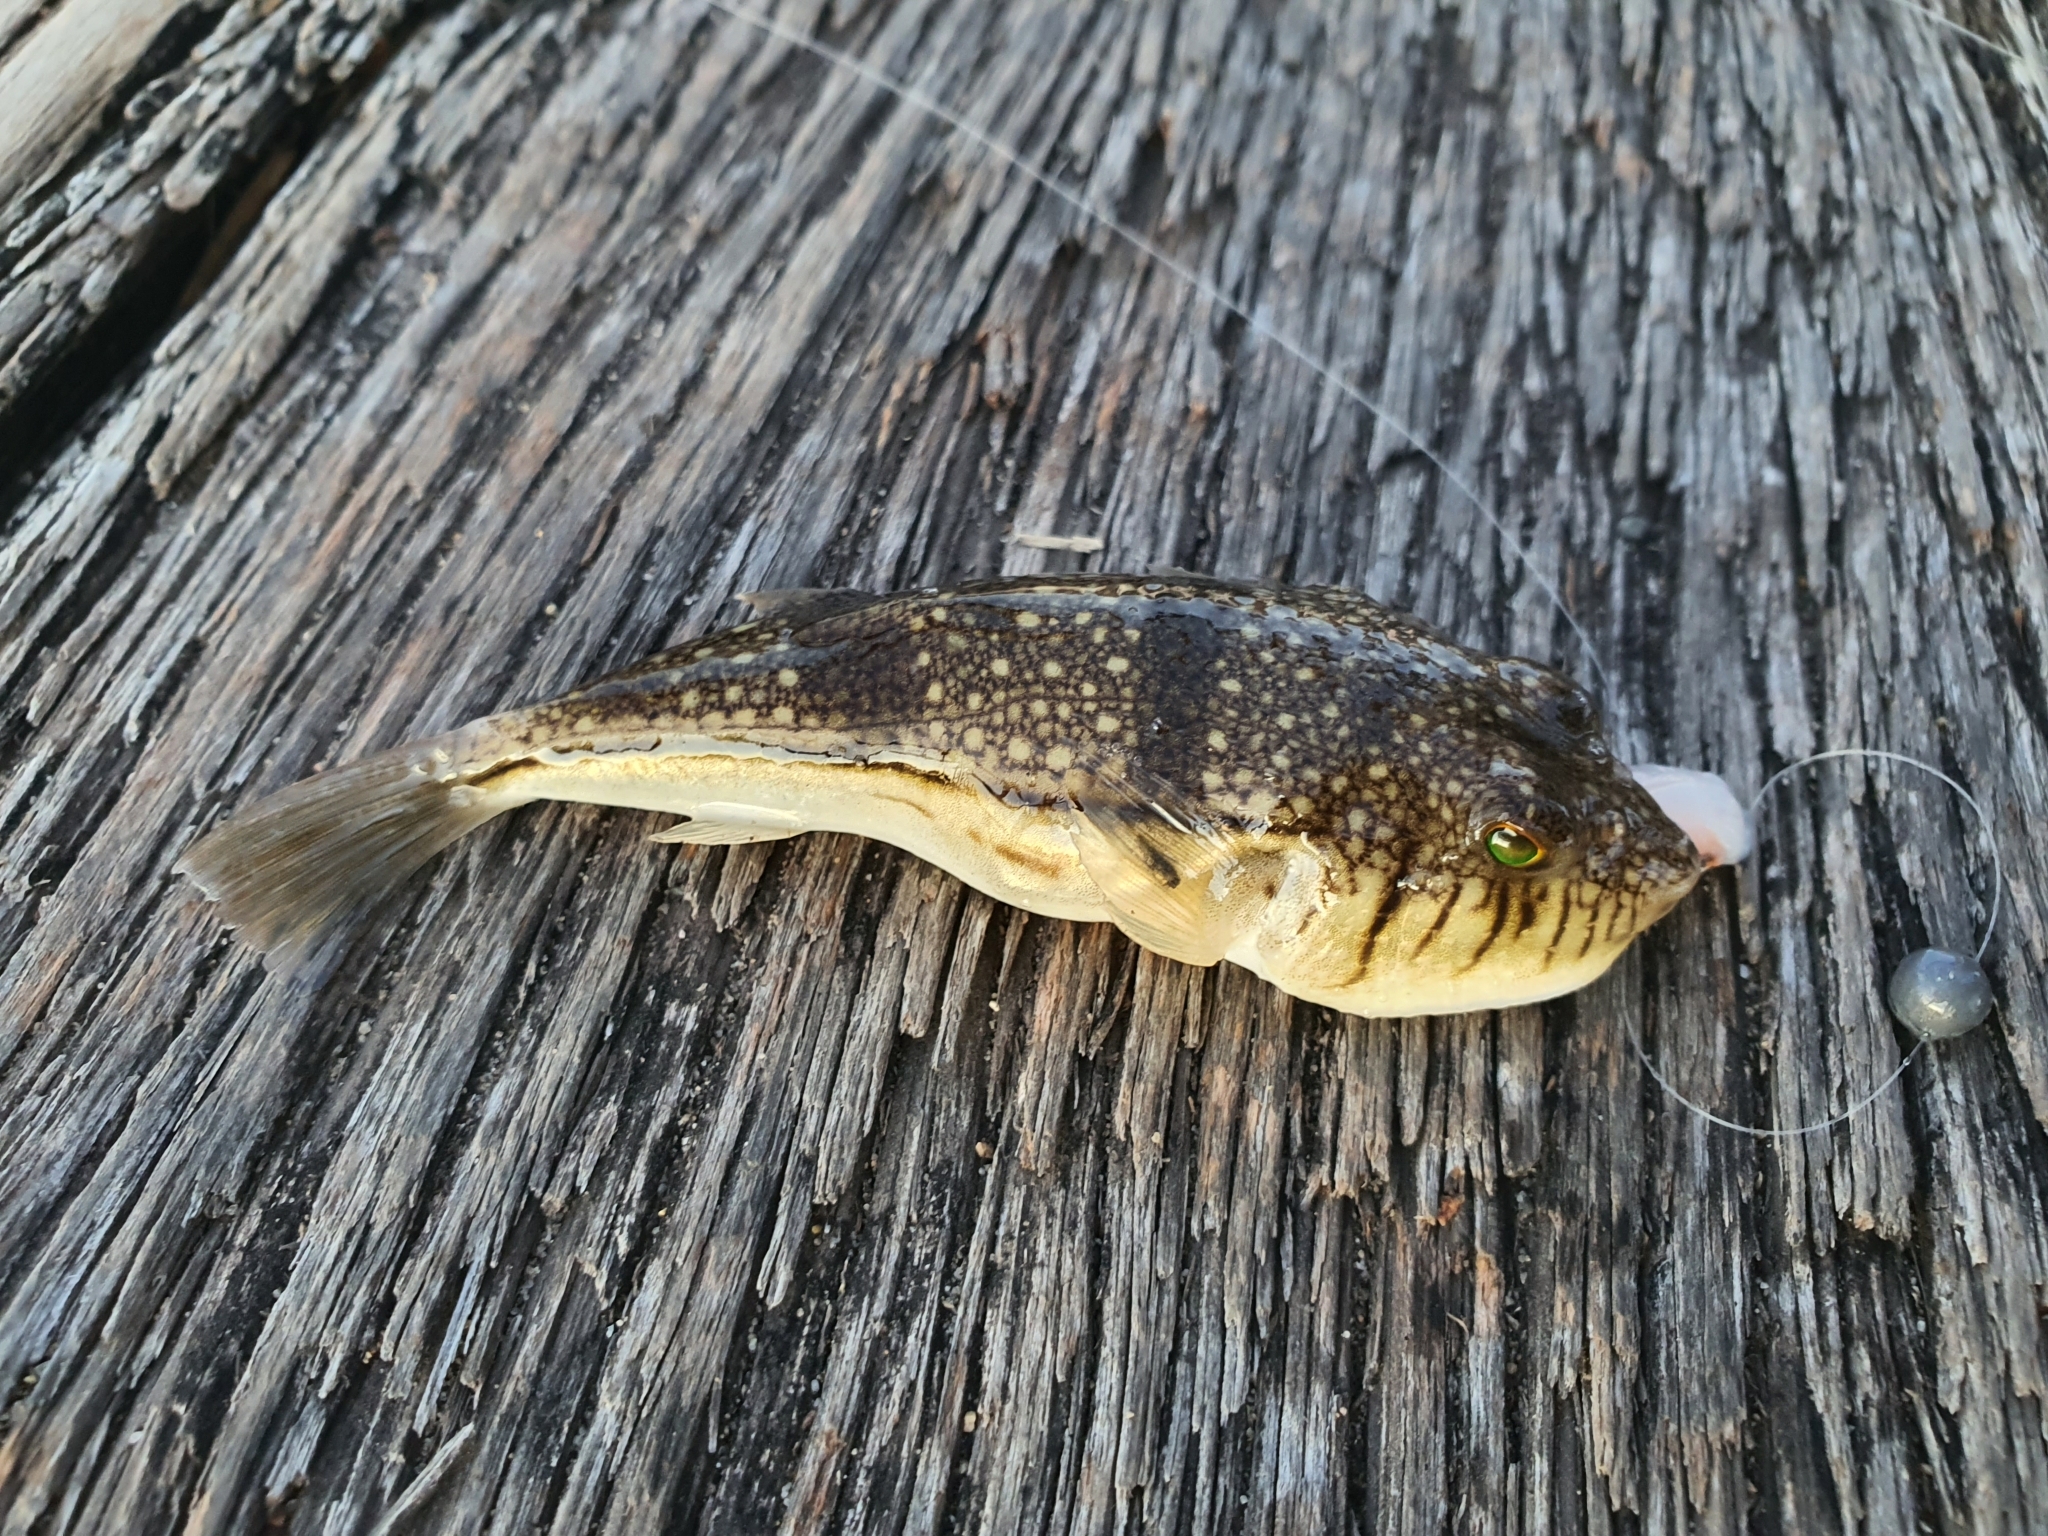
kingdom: Animalia
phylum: Chordata
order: Tetraodontiformes
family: Tetraodontidae
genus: Torquigener
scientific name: Torquigener pleurogramma
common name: Banded toadfish
